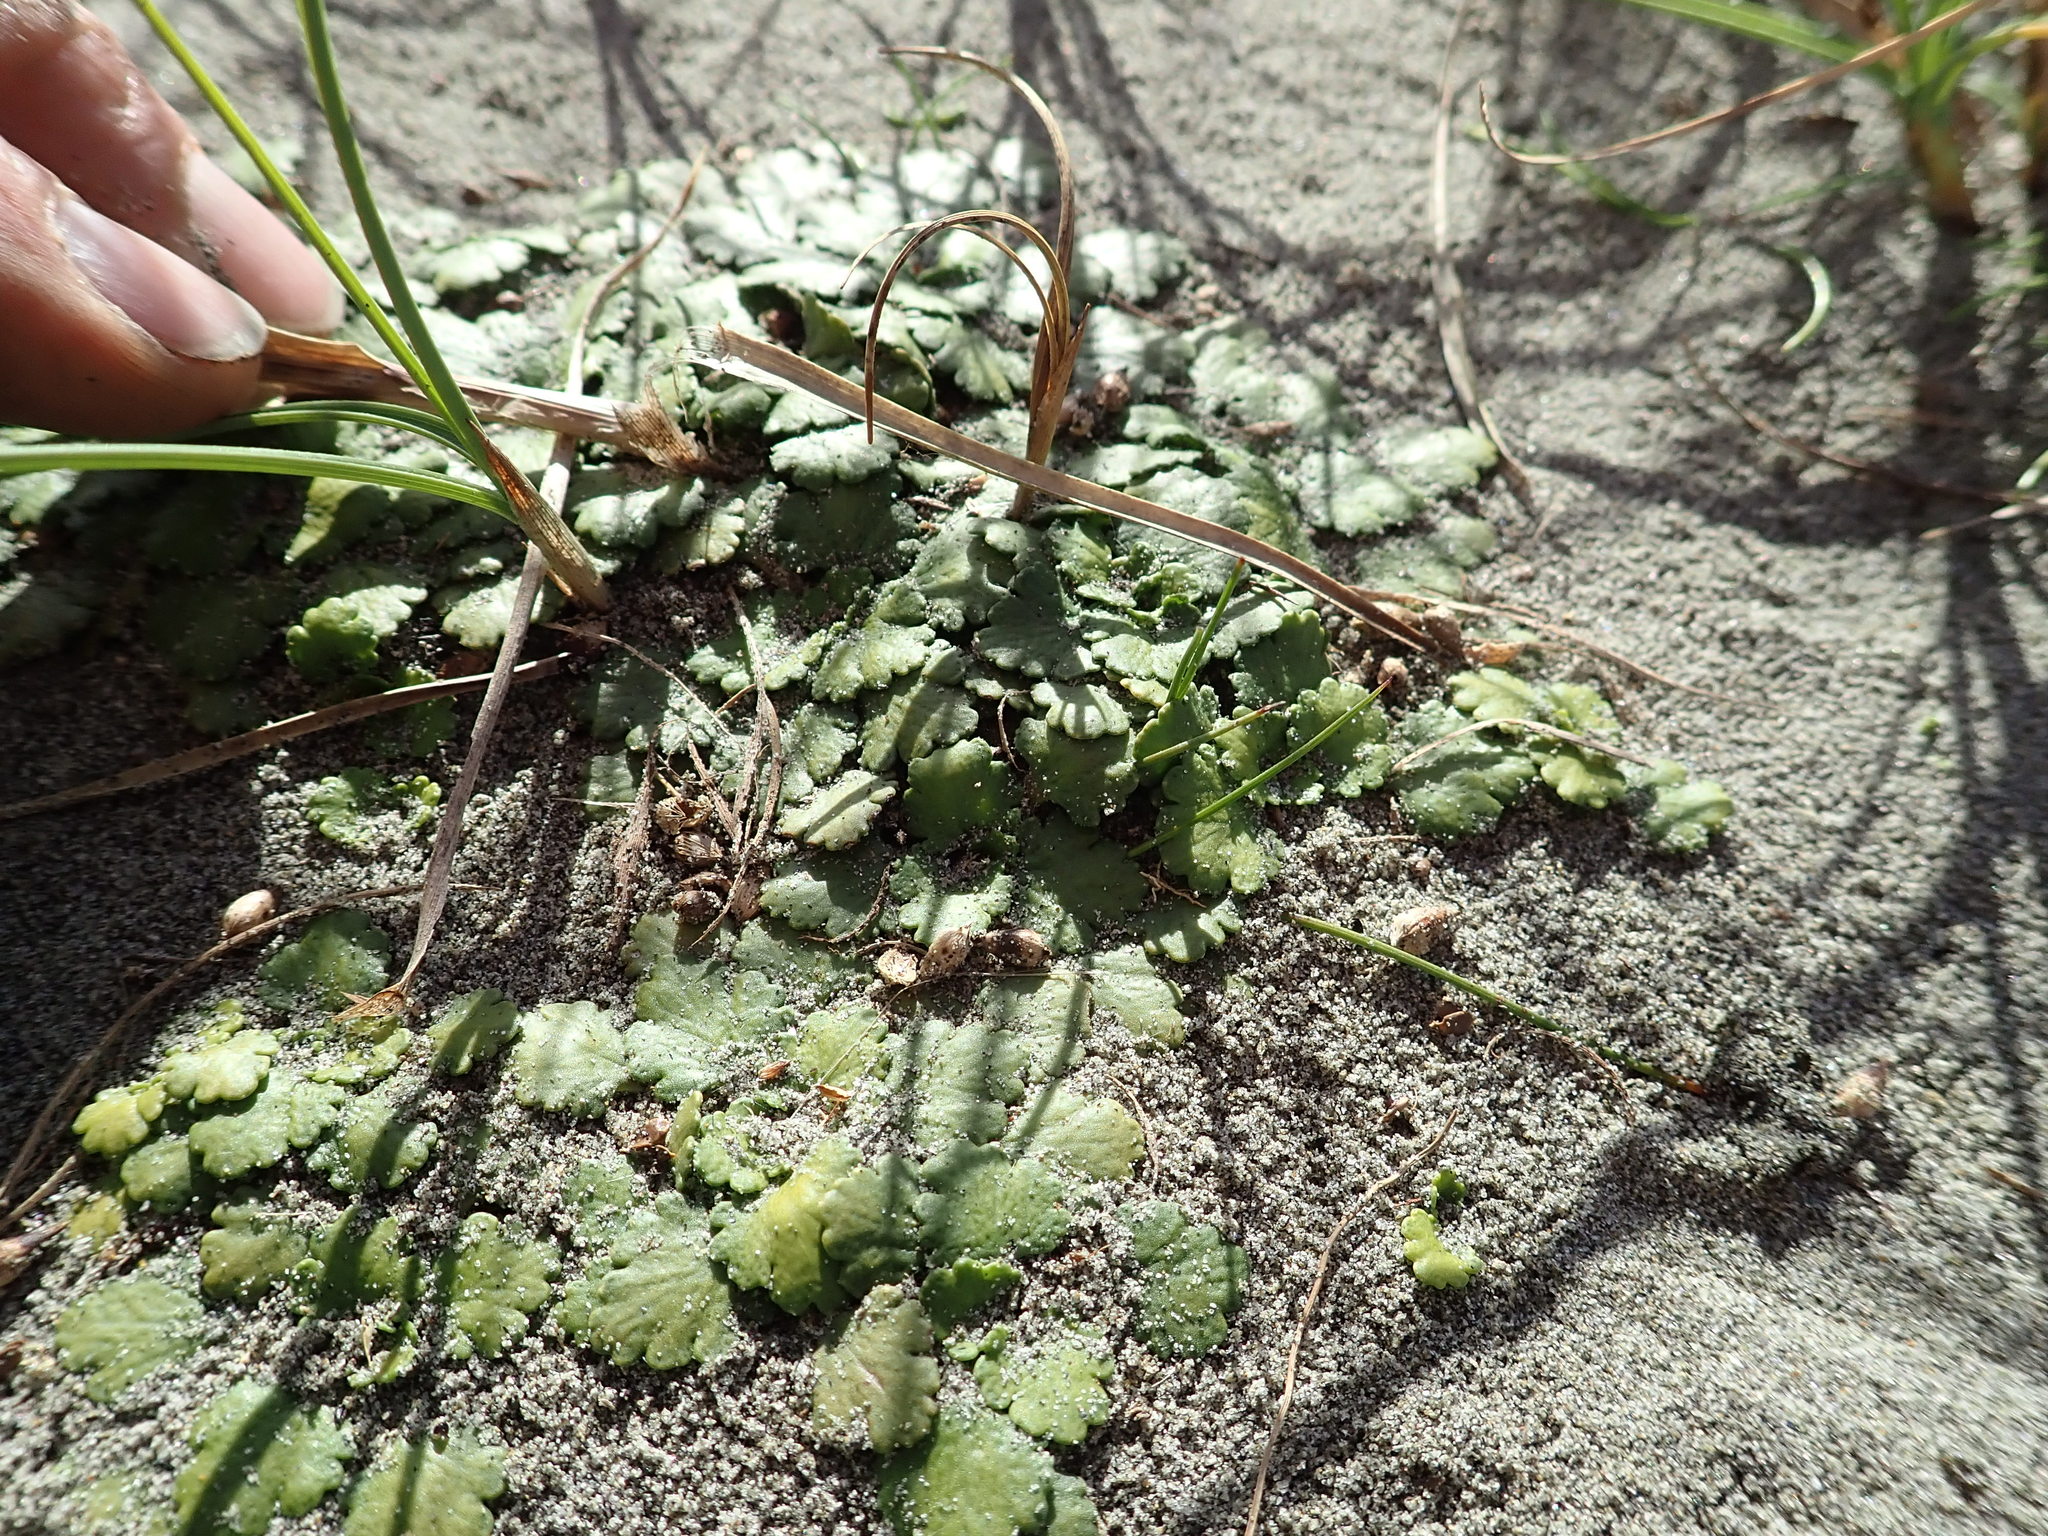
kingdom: Plantae
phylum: Tracheophyta
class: Magnoliopsida
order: Gunnerales
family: Gunneraceae
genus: Gunnera
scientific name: Gunnera dentata
